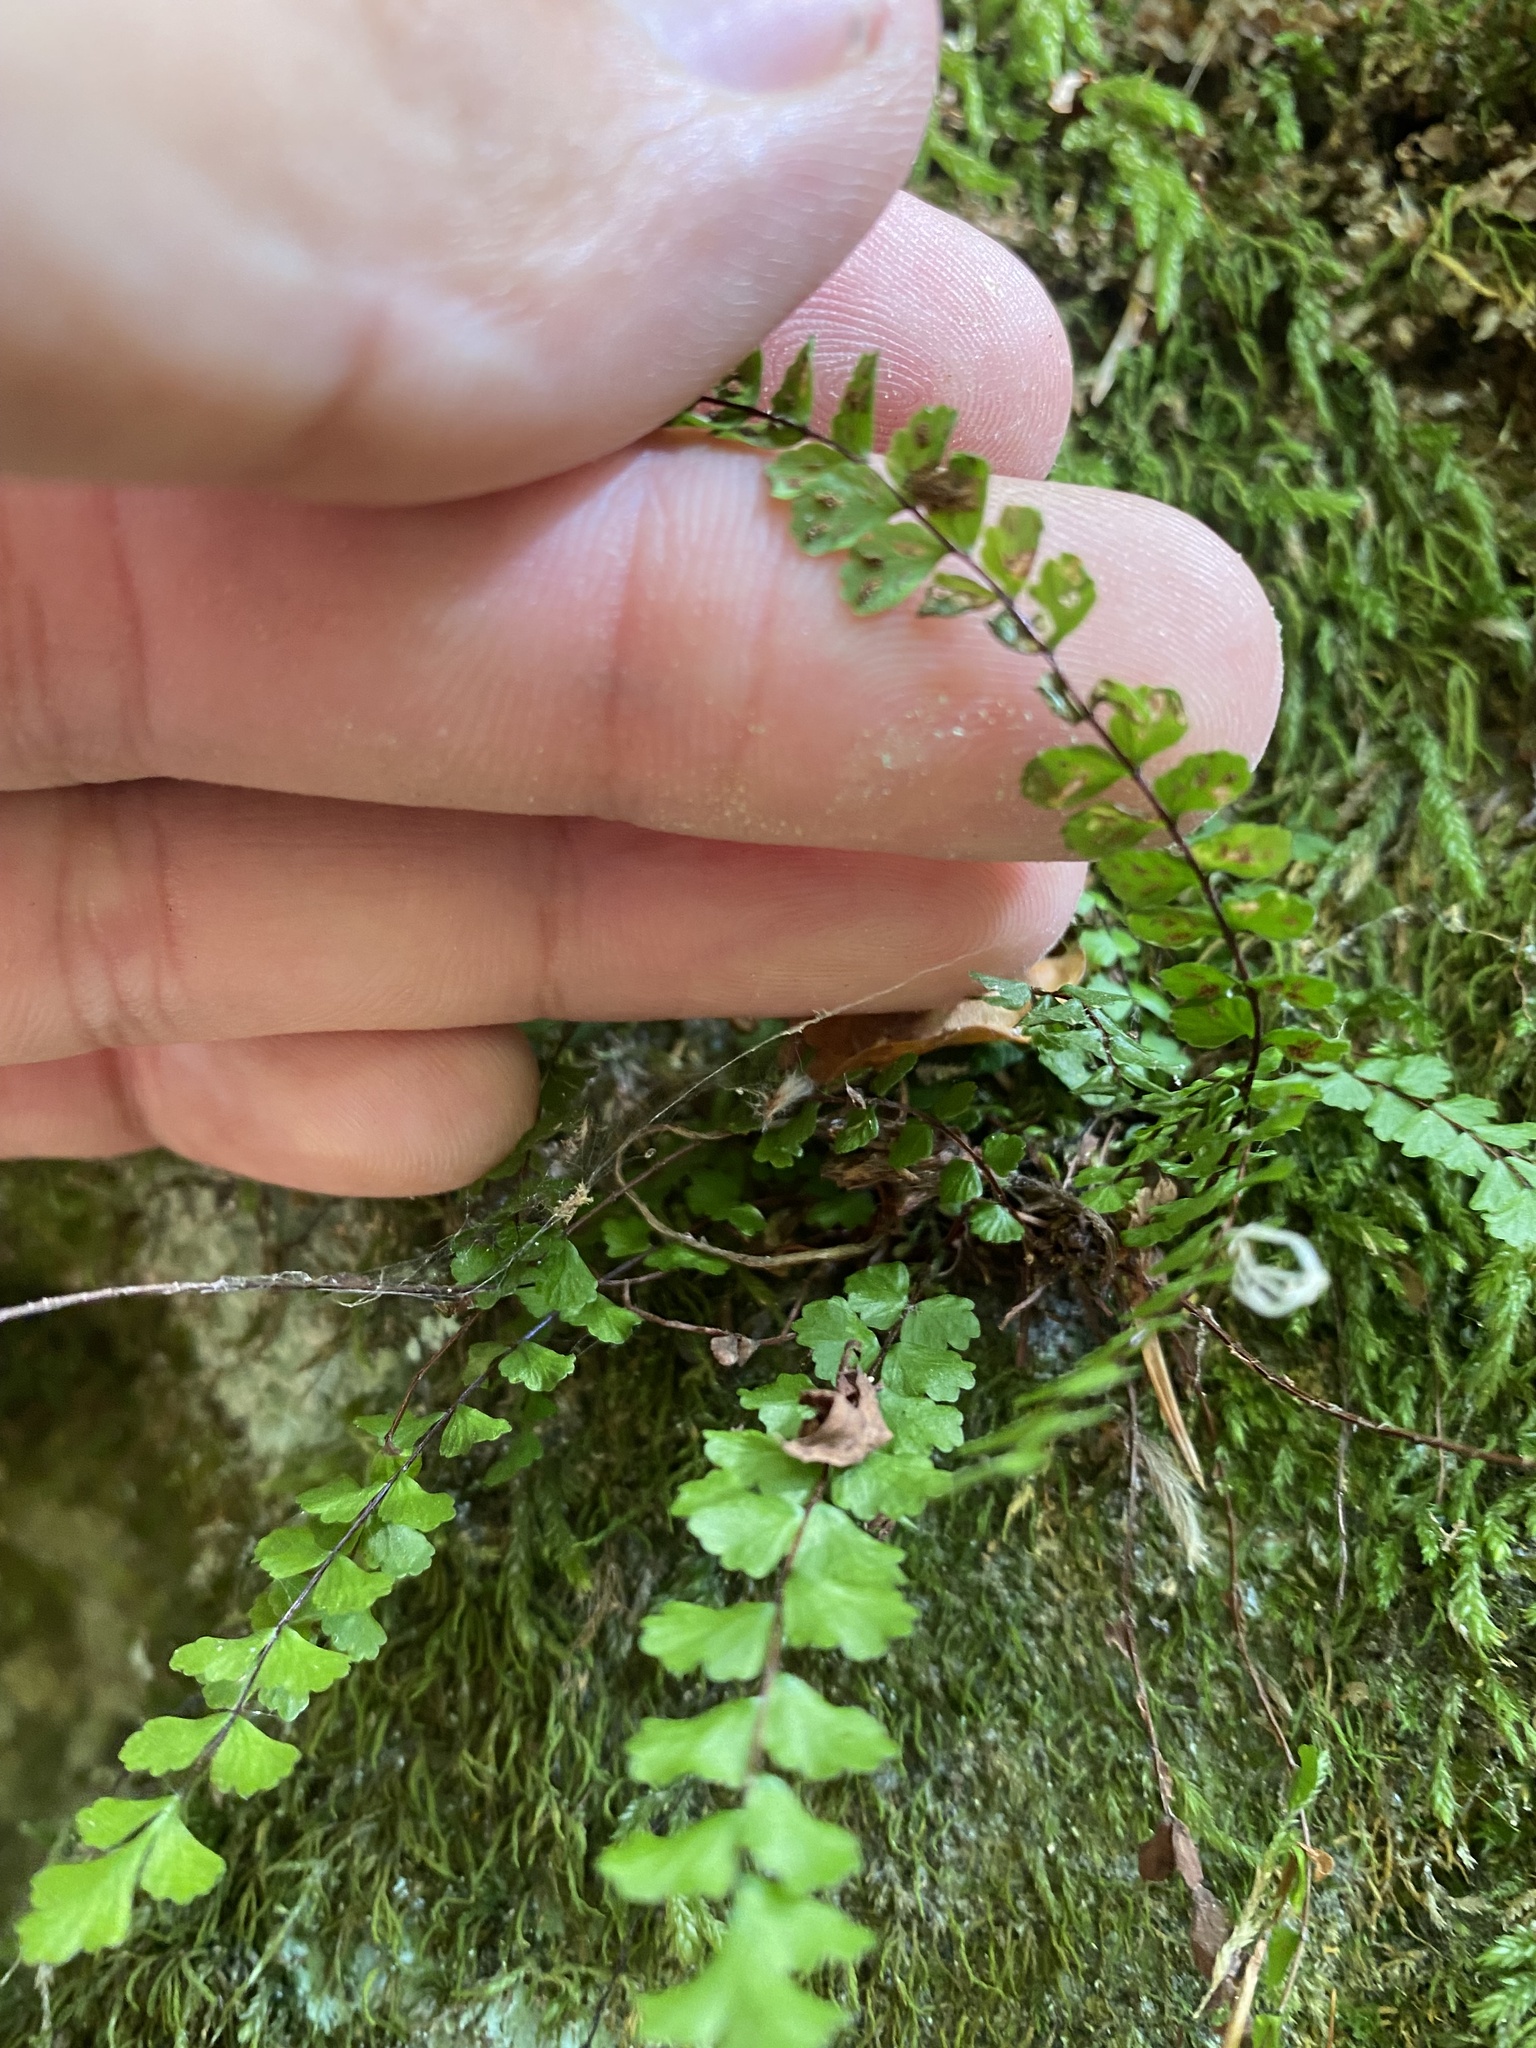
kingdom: Plantae
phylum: Tracheophyta
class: Polypodiopsida
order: Polypodiales
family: Aspleniaceae
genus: Asplenium
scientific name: Asplenium trichomanes
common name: Maidenhair spleenwort
